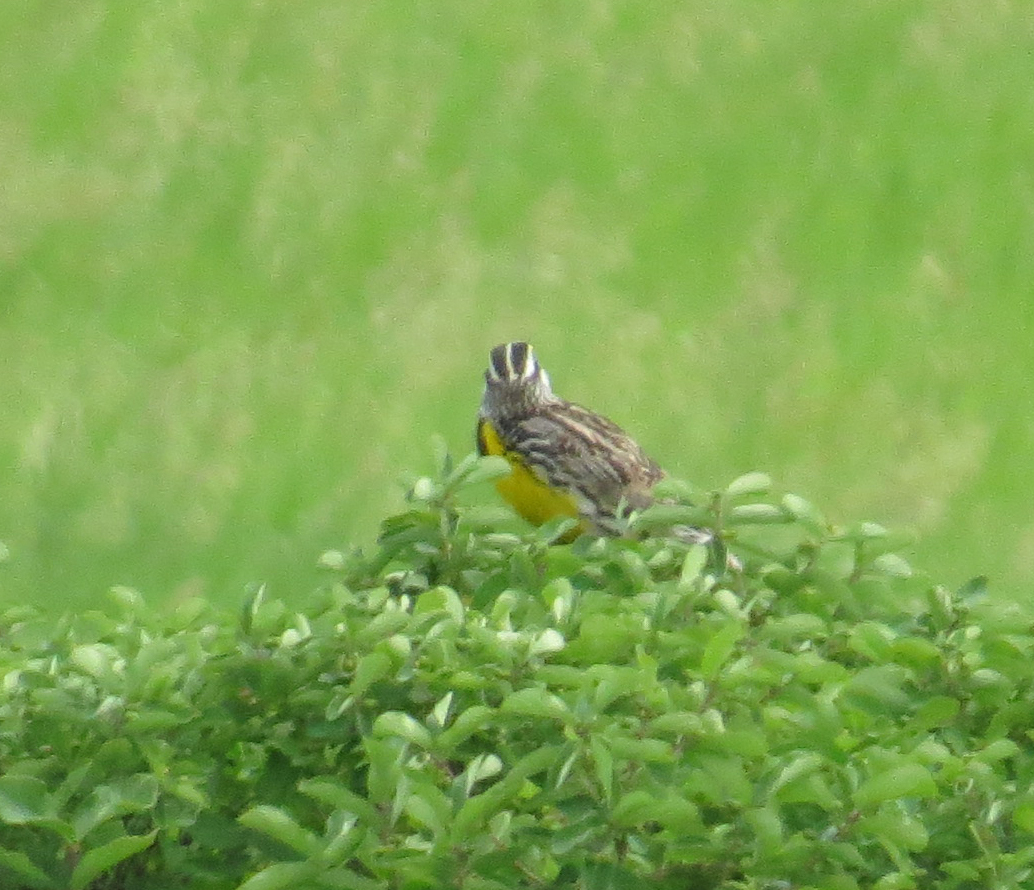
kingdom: Animalia
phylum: Chordata
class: Aves
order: Passeriformes
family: Icteridae
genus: Sturnella
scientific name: Sturnella magna
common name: Eastern meadowlark
